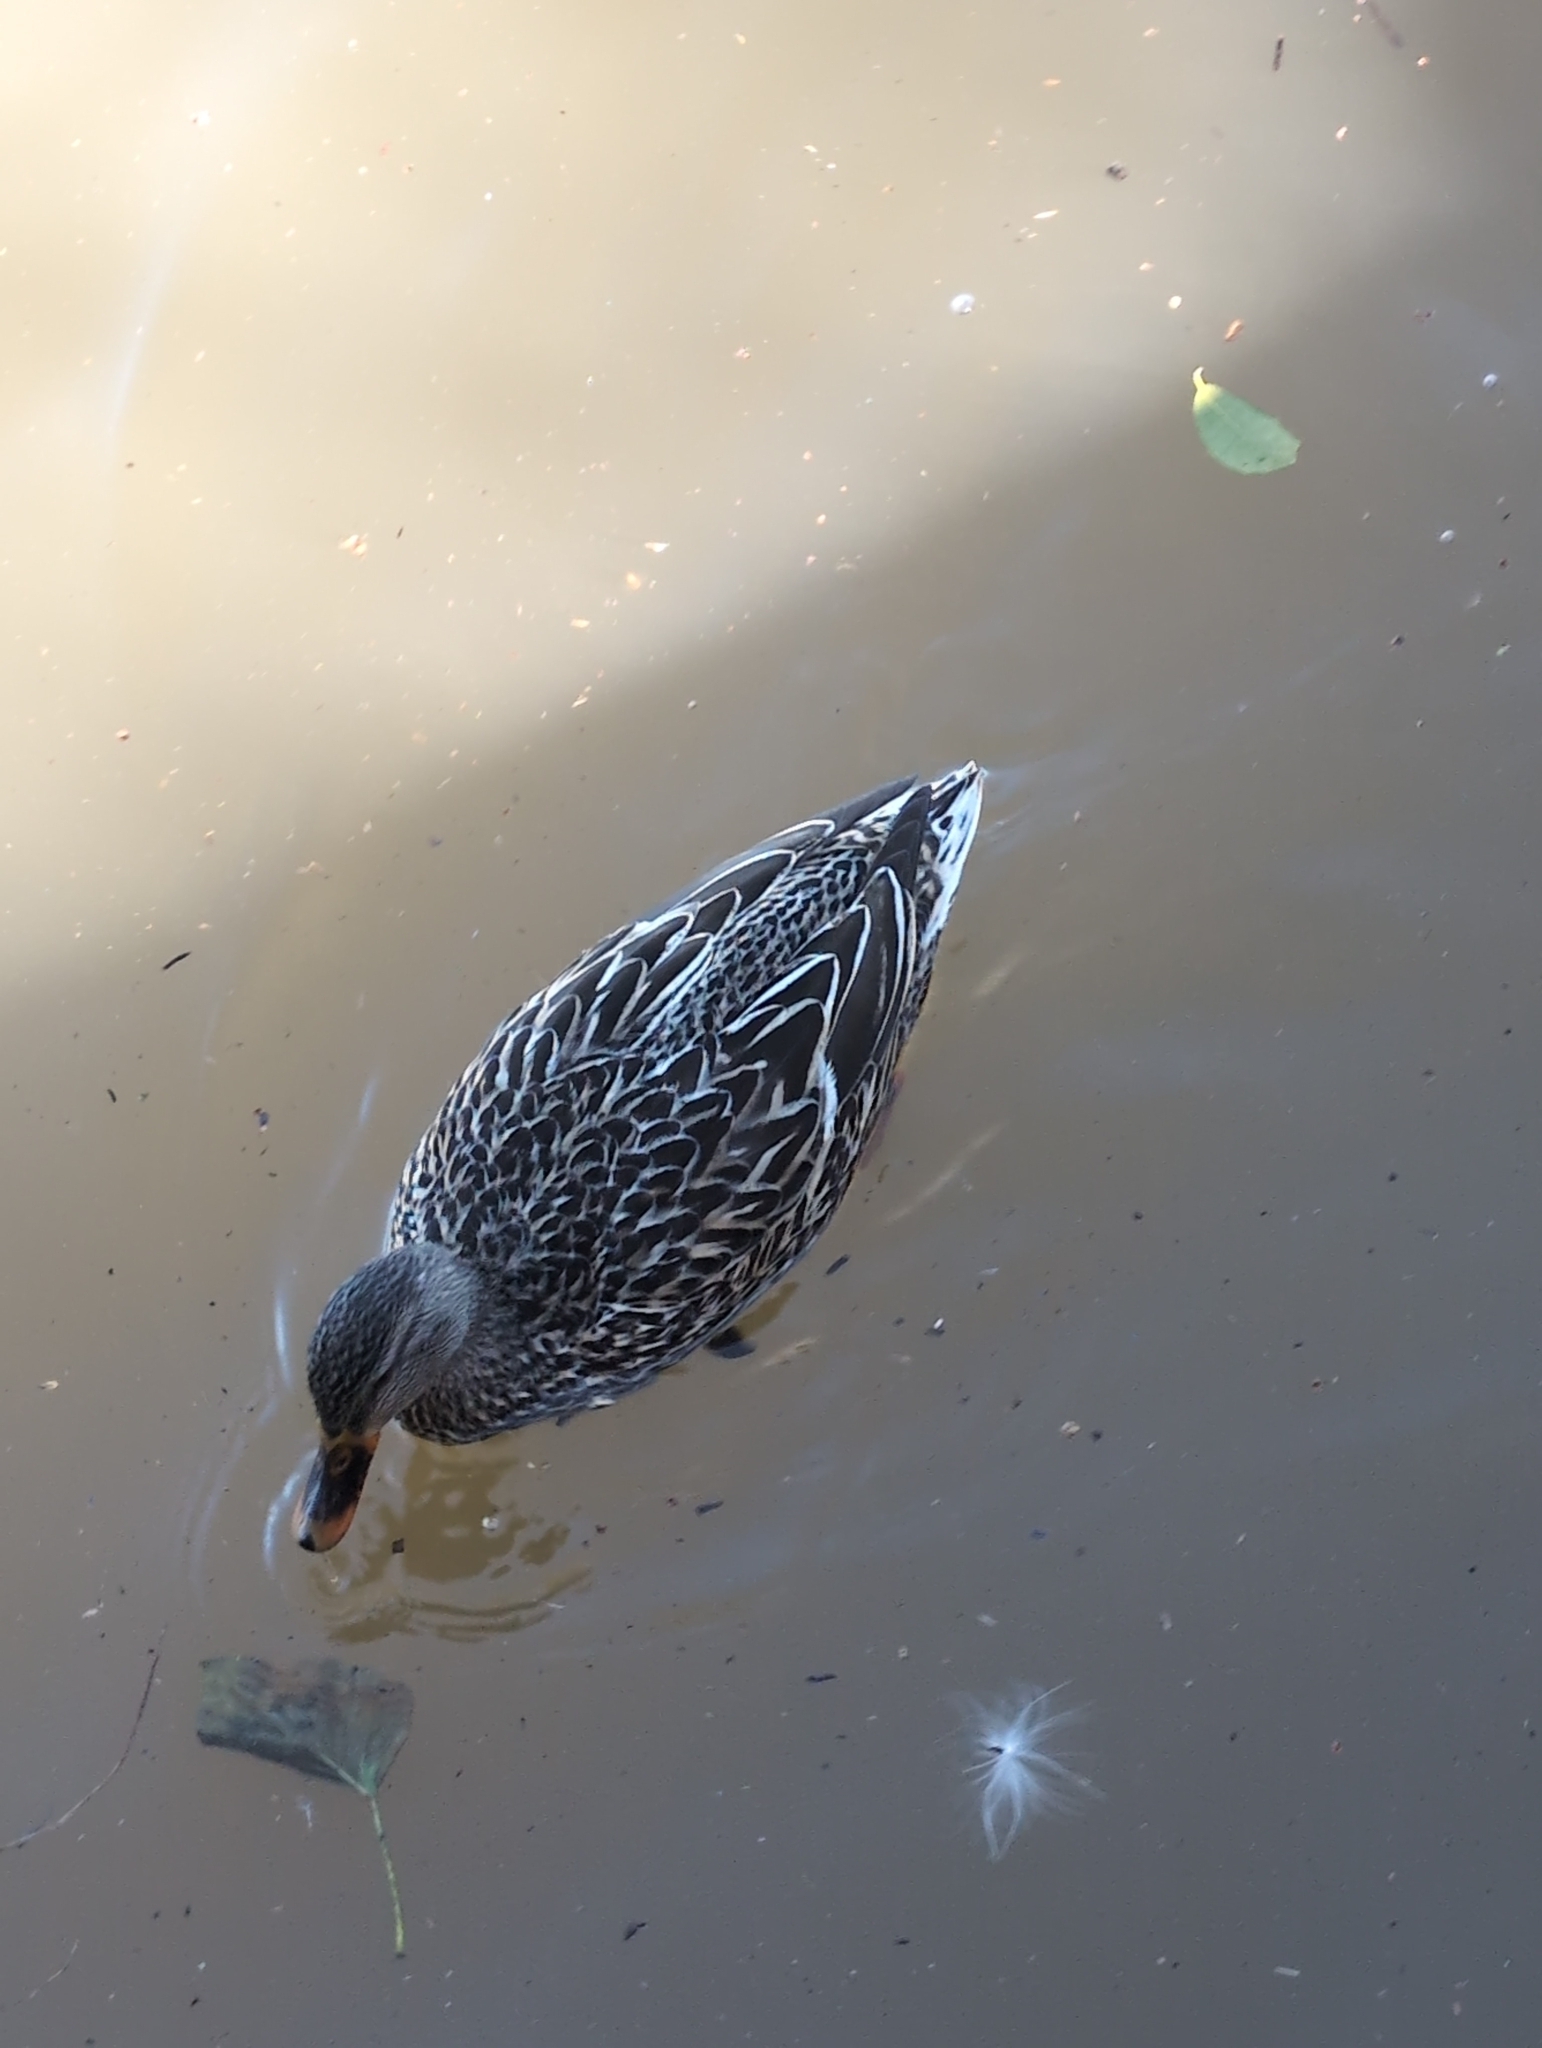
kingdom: Animalia
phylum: Chordata
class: Aves
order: Anseriformes
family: Anatidae
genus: Anas
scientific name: Anas platyrhynchos
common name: Mallard
